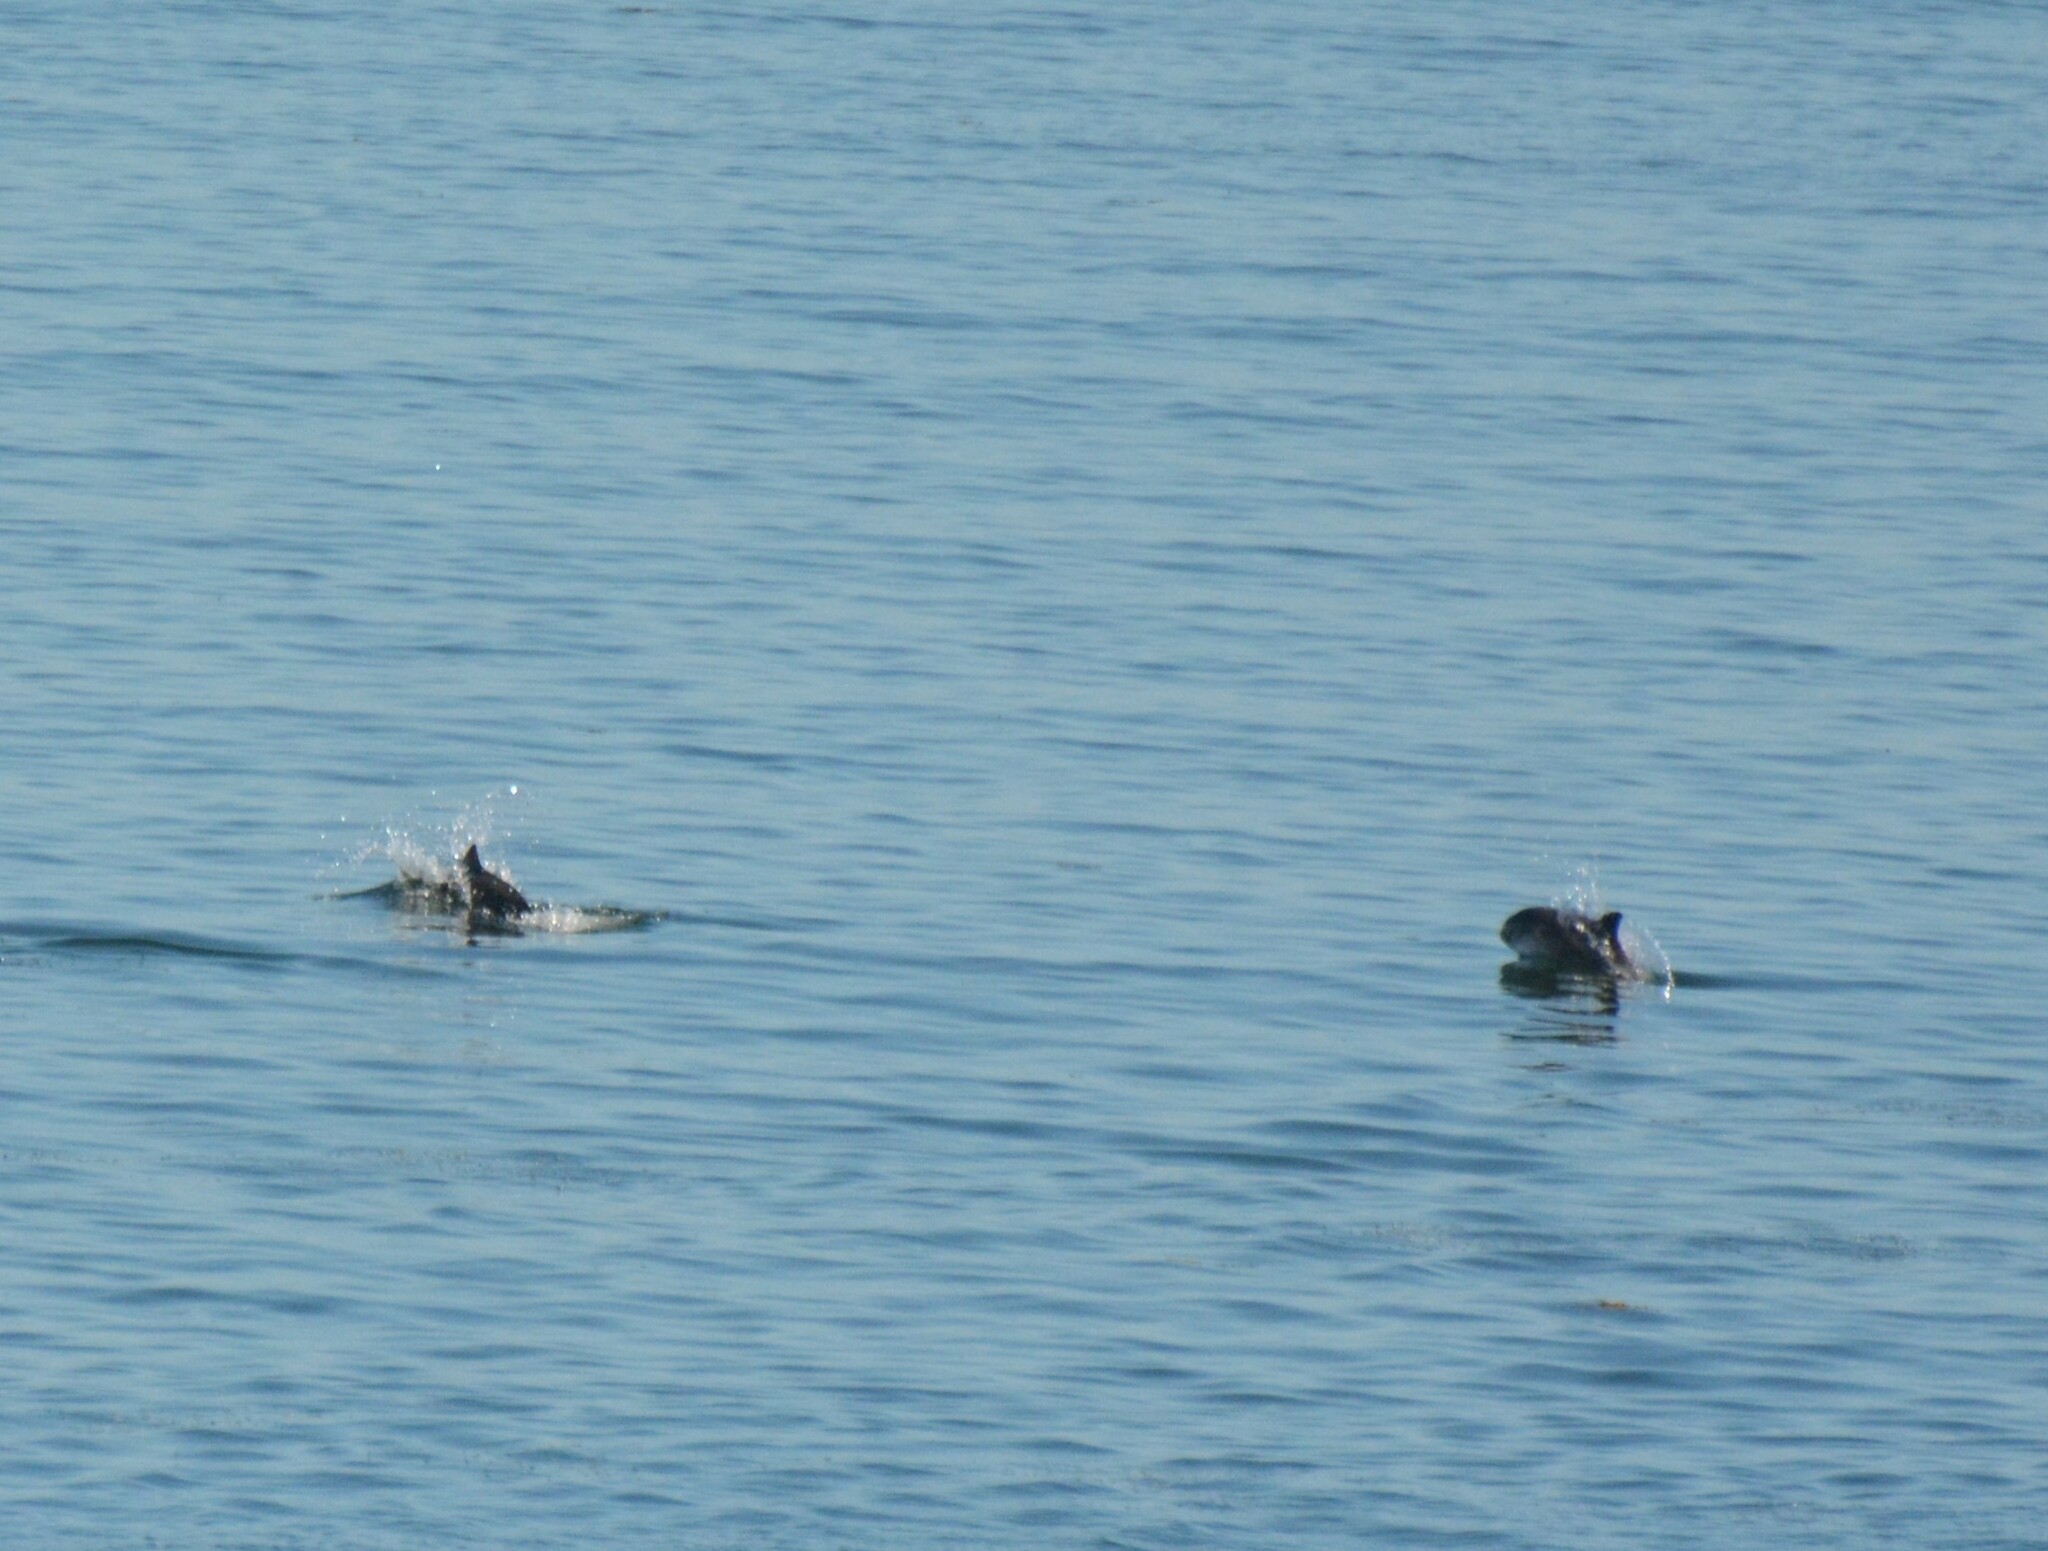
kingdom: Animalia
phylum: Chordata
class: Mammalia
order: Cetacea
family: Phocoenidae
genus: Phocoena
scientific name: Phocoena phocoena
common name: Harbor porpoise
